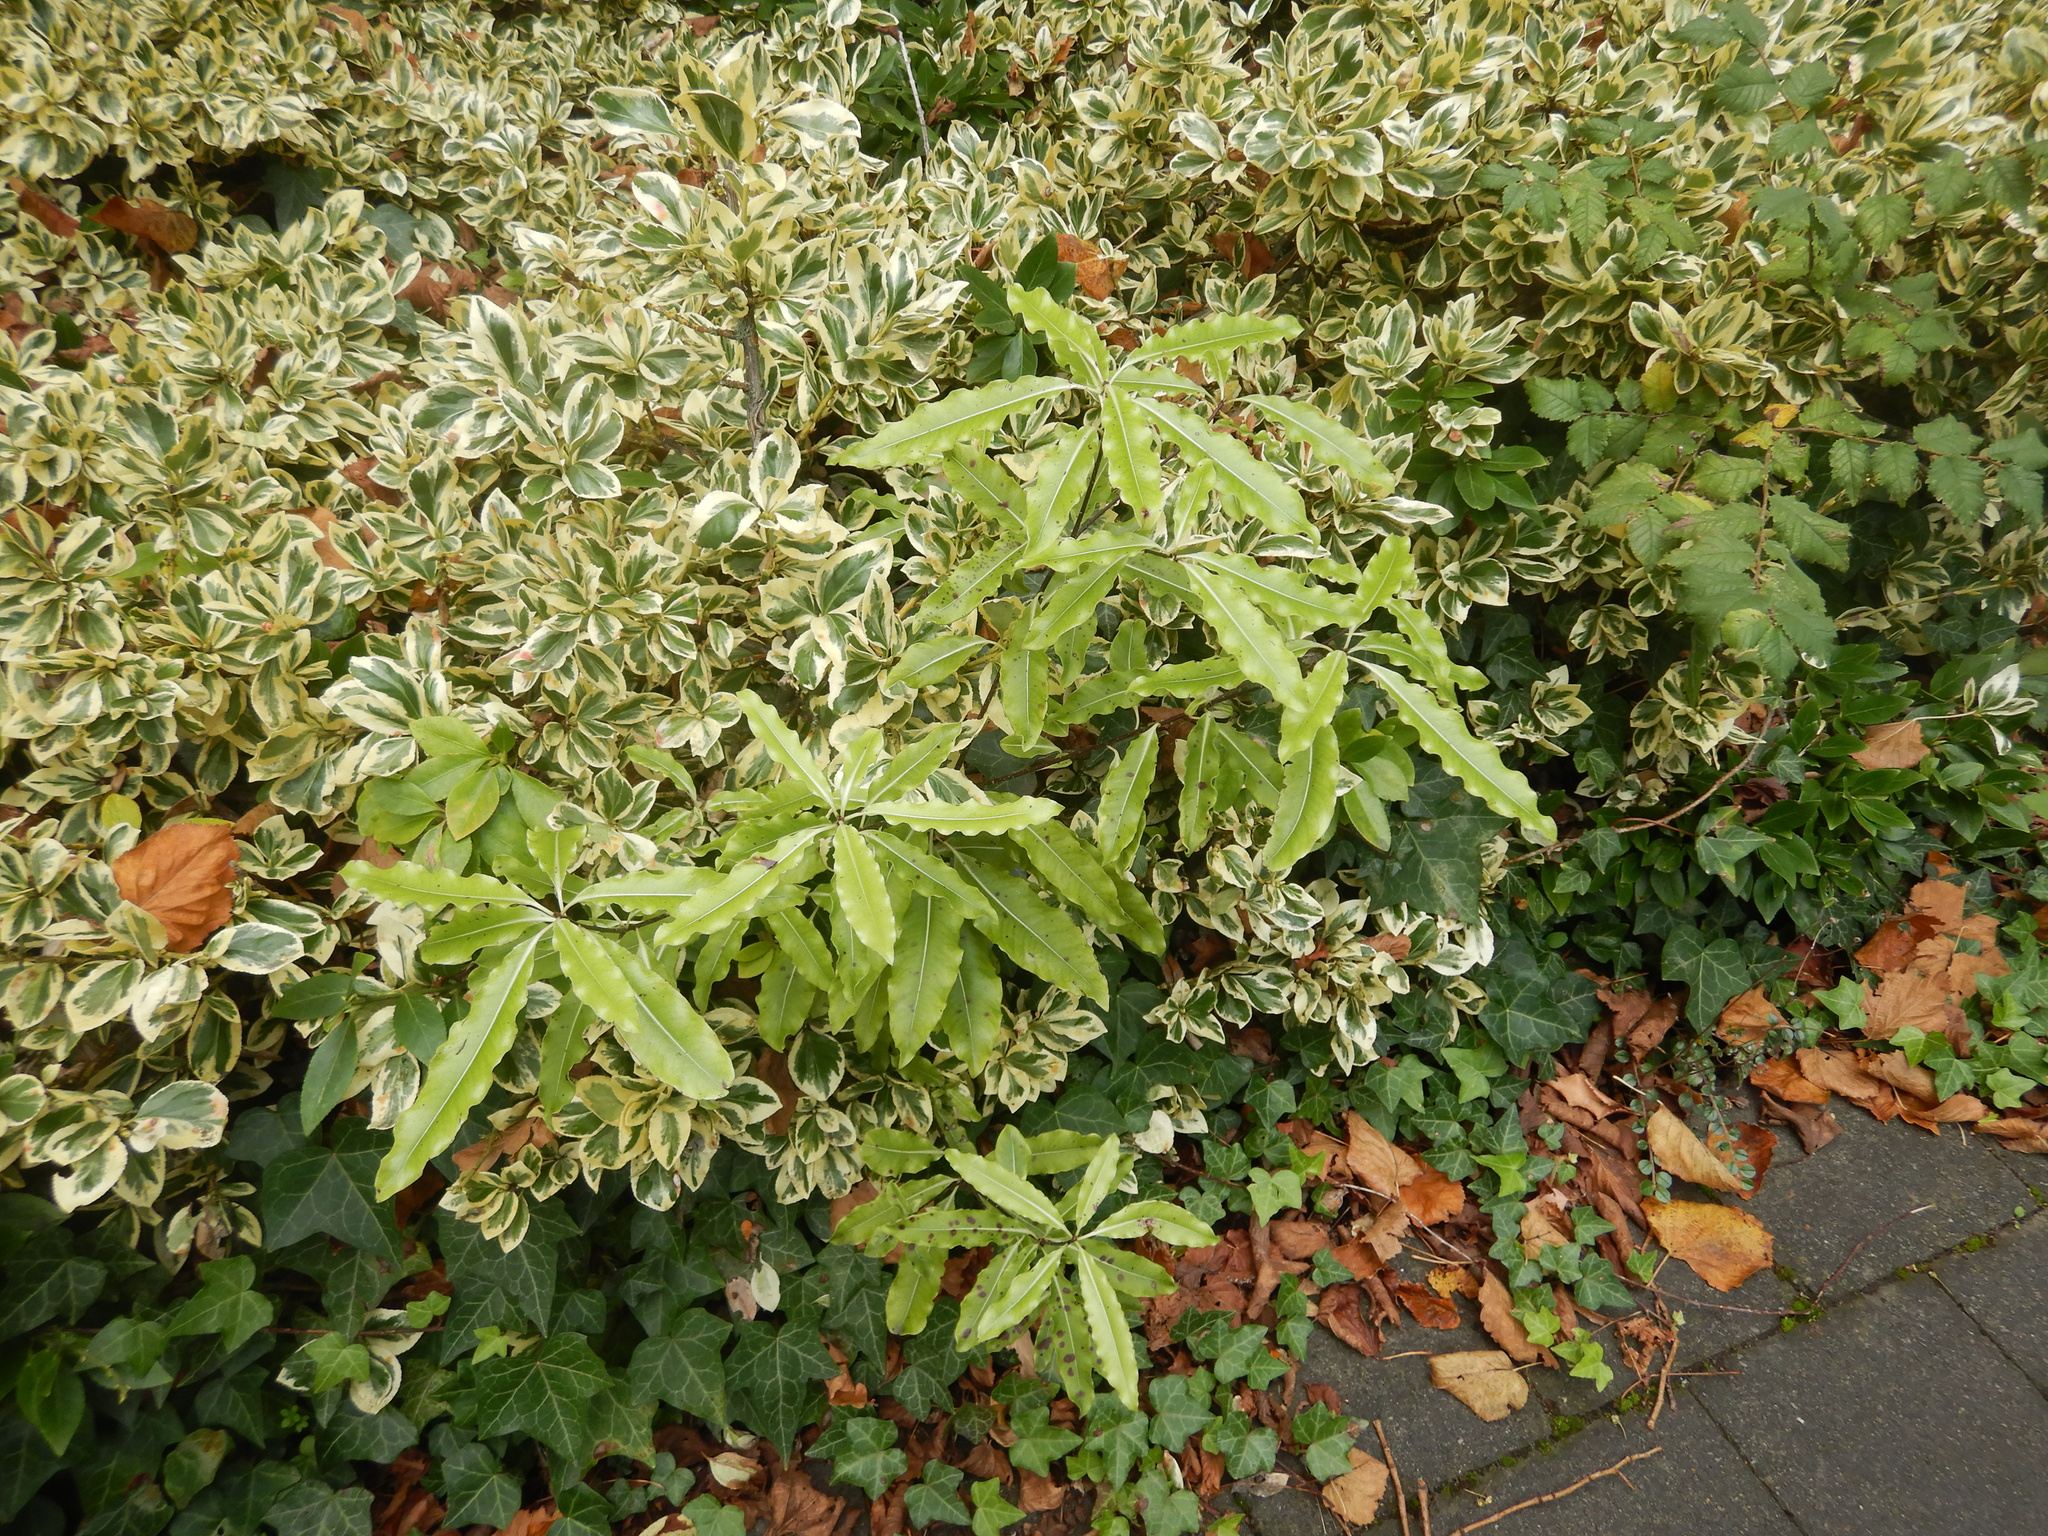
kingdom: Plantae
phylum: Tracheophyta
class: Magnoliopsida
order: Apiales
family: Pittosporaceae
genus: Pittosporum
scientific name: Pittosporum eugenioides
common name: Lemonwood
